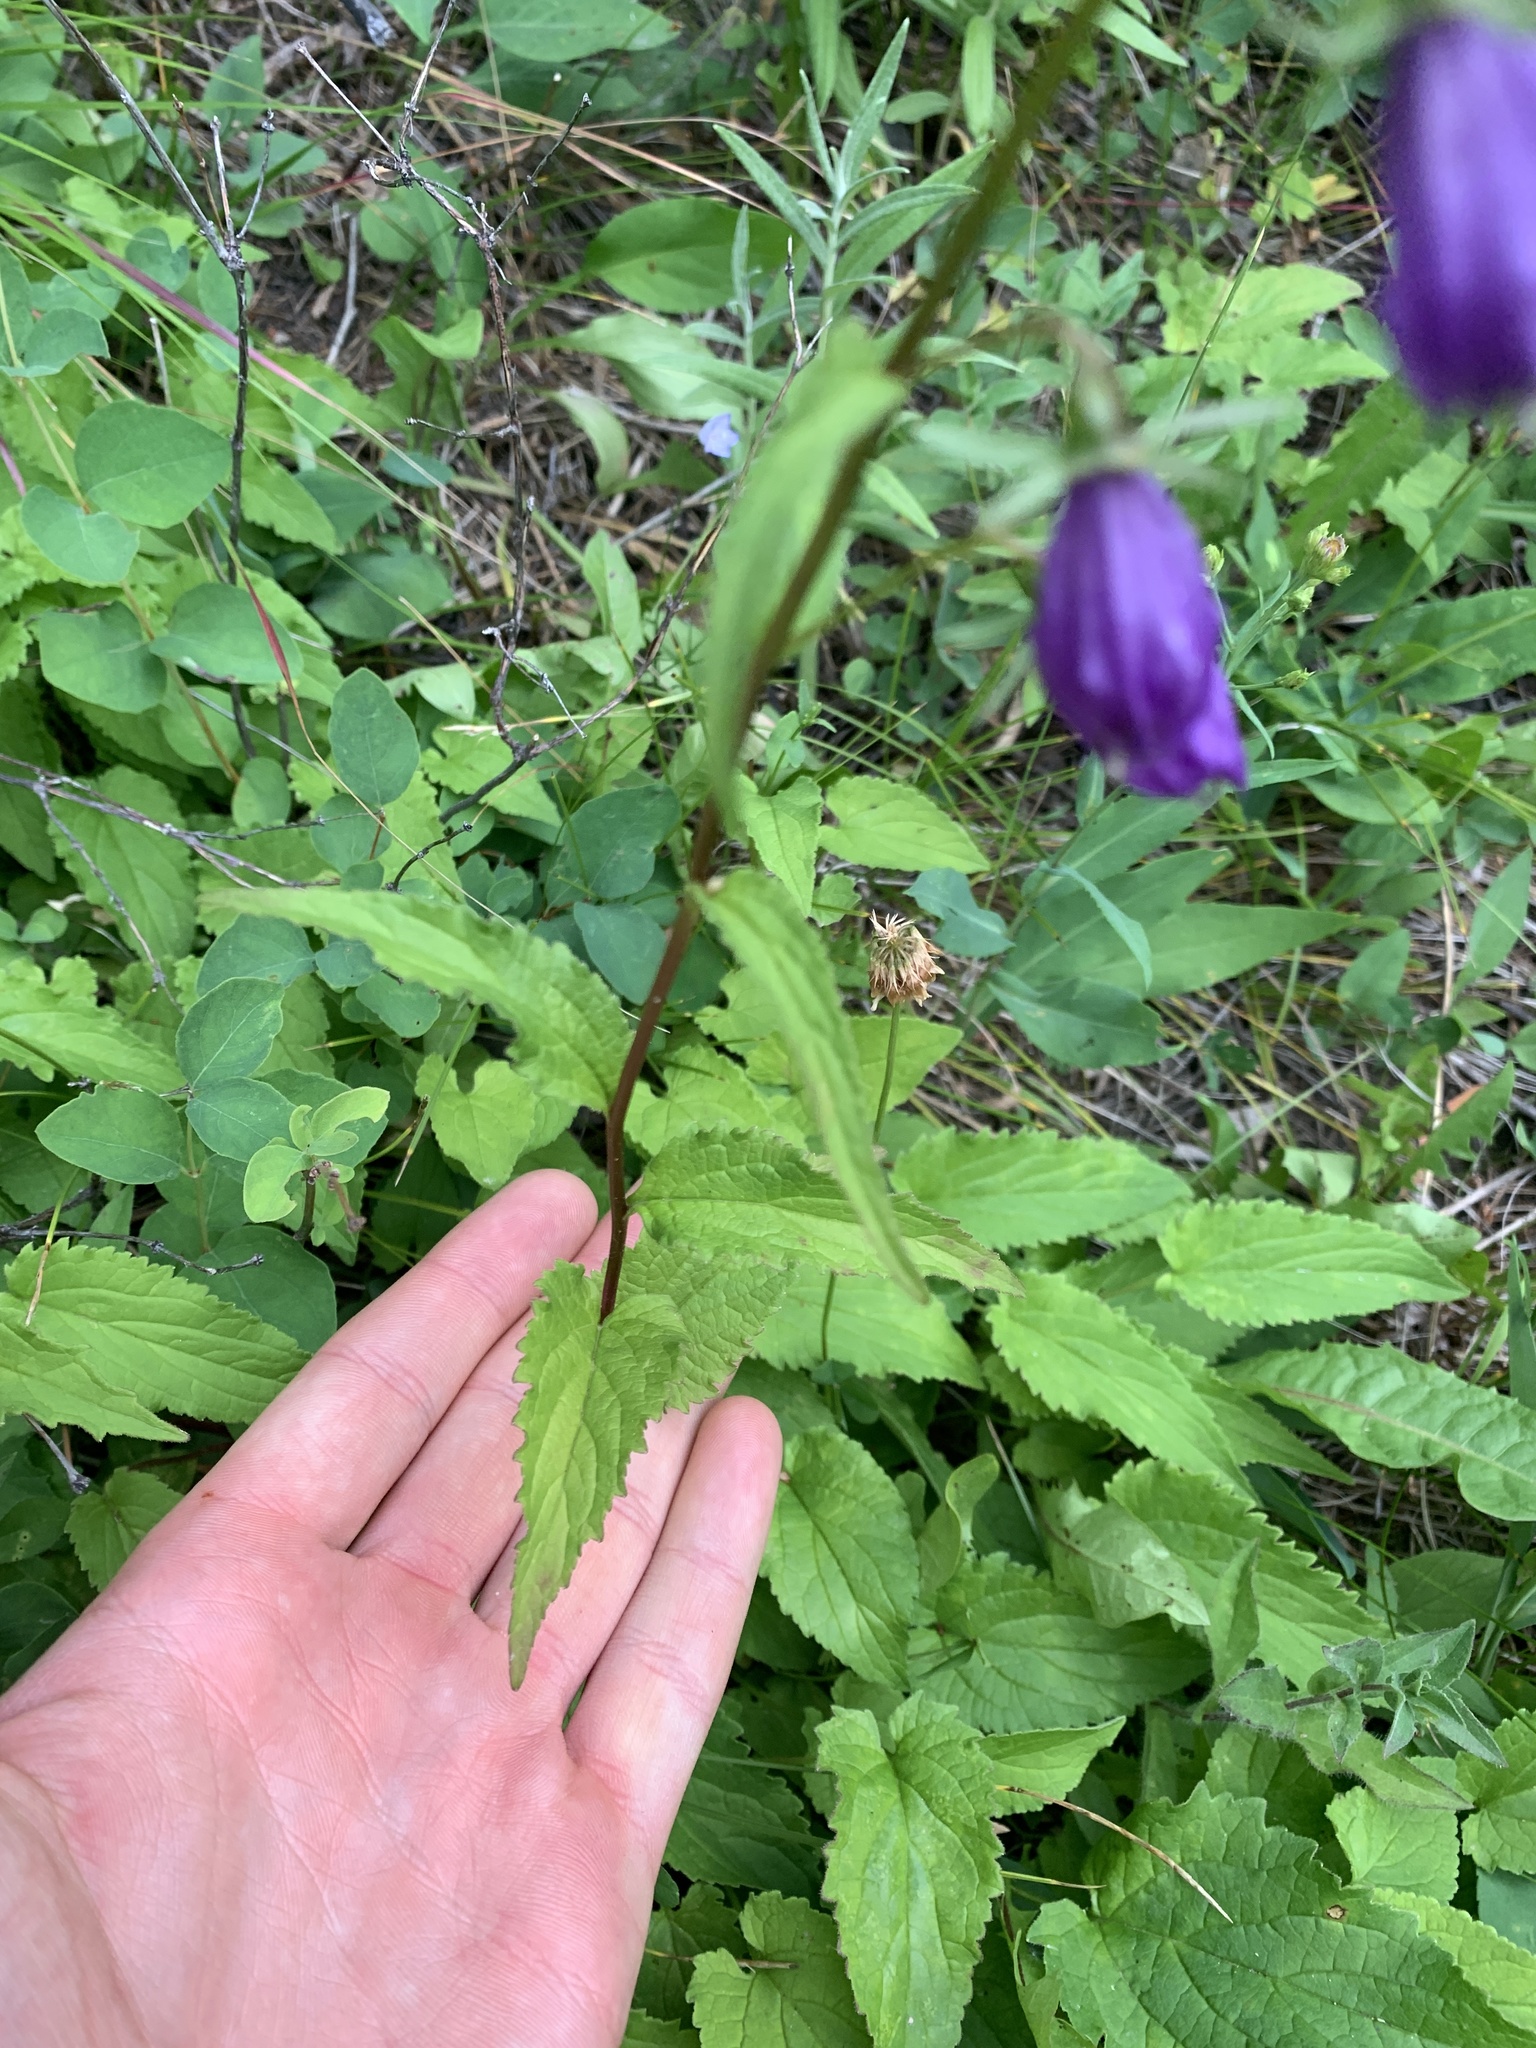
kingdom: Plantae
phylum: Tracheophyta
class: Magnoliopsida
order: Asterales
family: Campanulaceae
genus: Campanula
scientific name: Campanula rapunculoides
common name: Creeping bellflower
